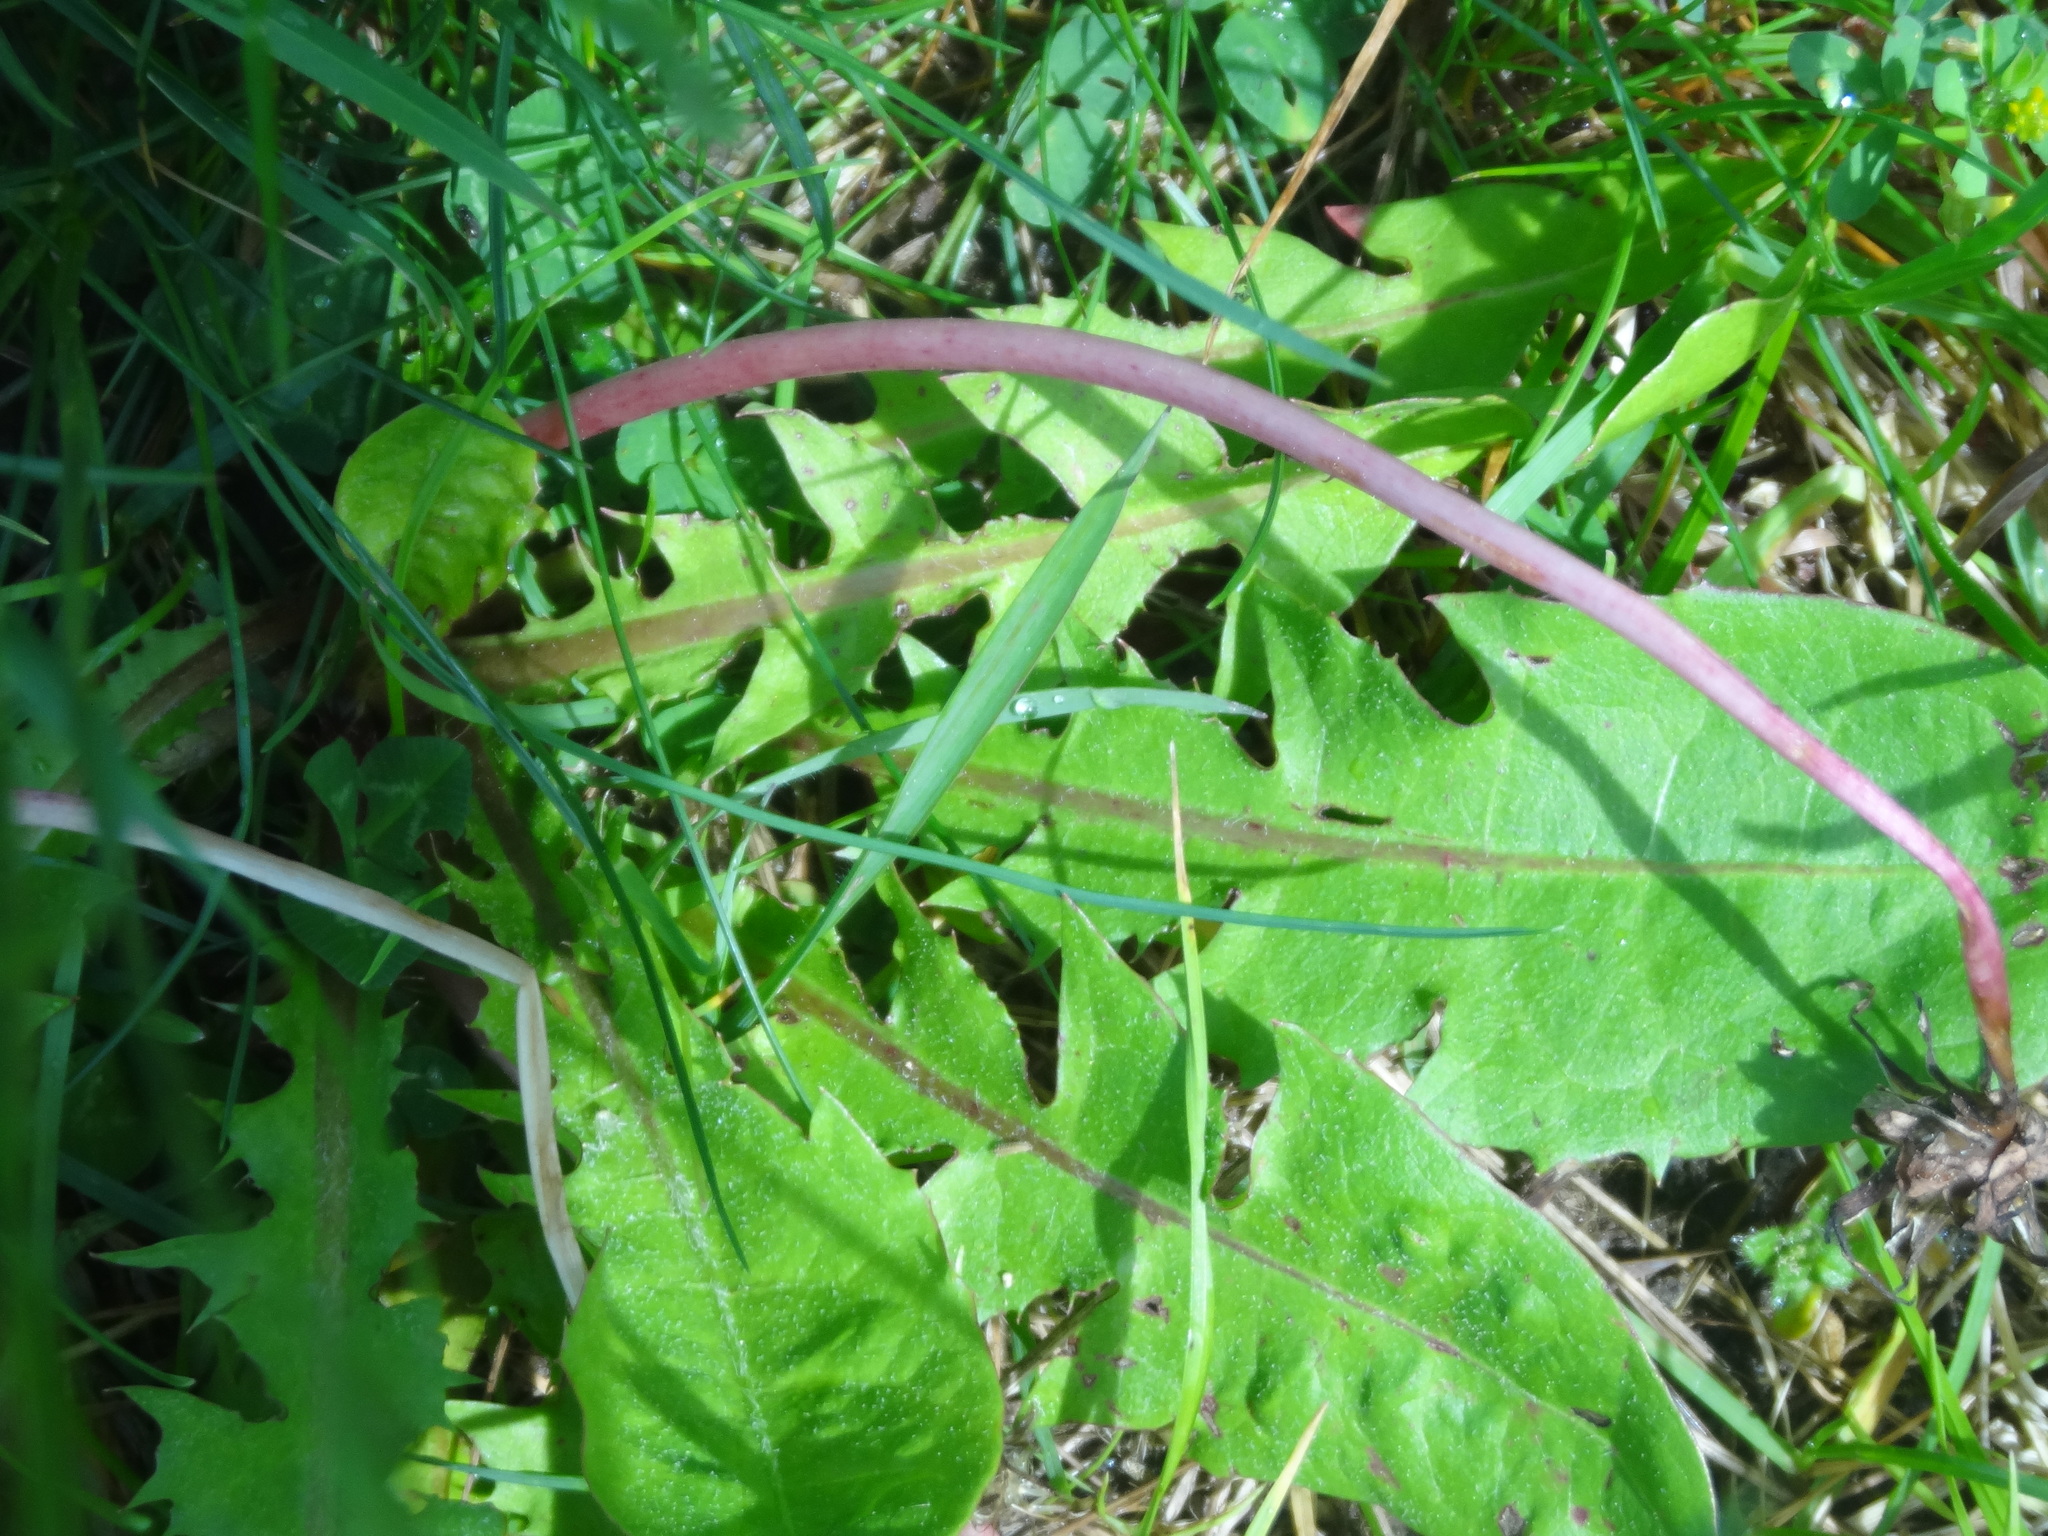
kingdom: Plantae
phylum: Tracheophyta
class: Magnoliopsida
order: Asterales
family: Asteraceae
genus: Taraxacum
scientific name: Taraxacum officinale
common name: Common dandelion
